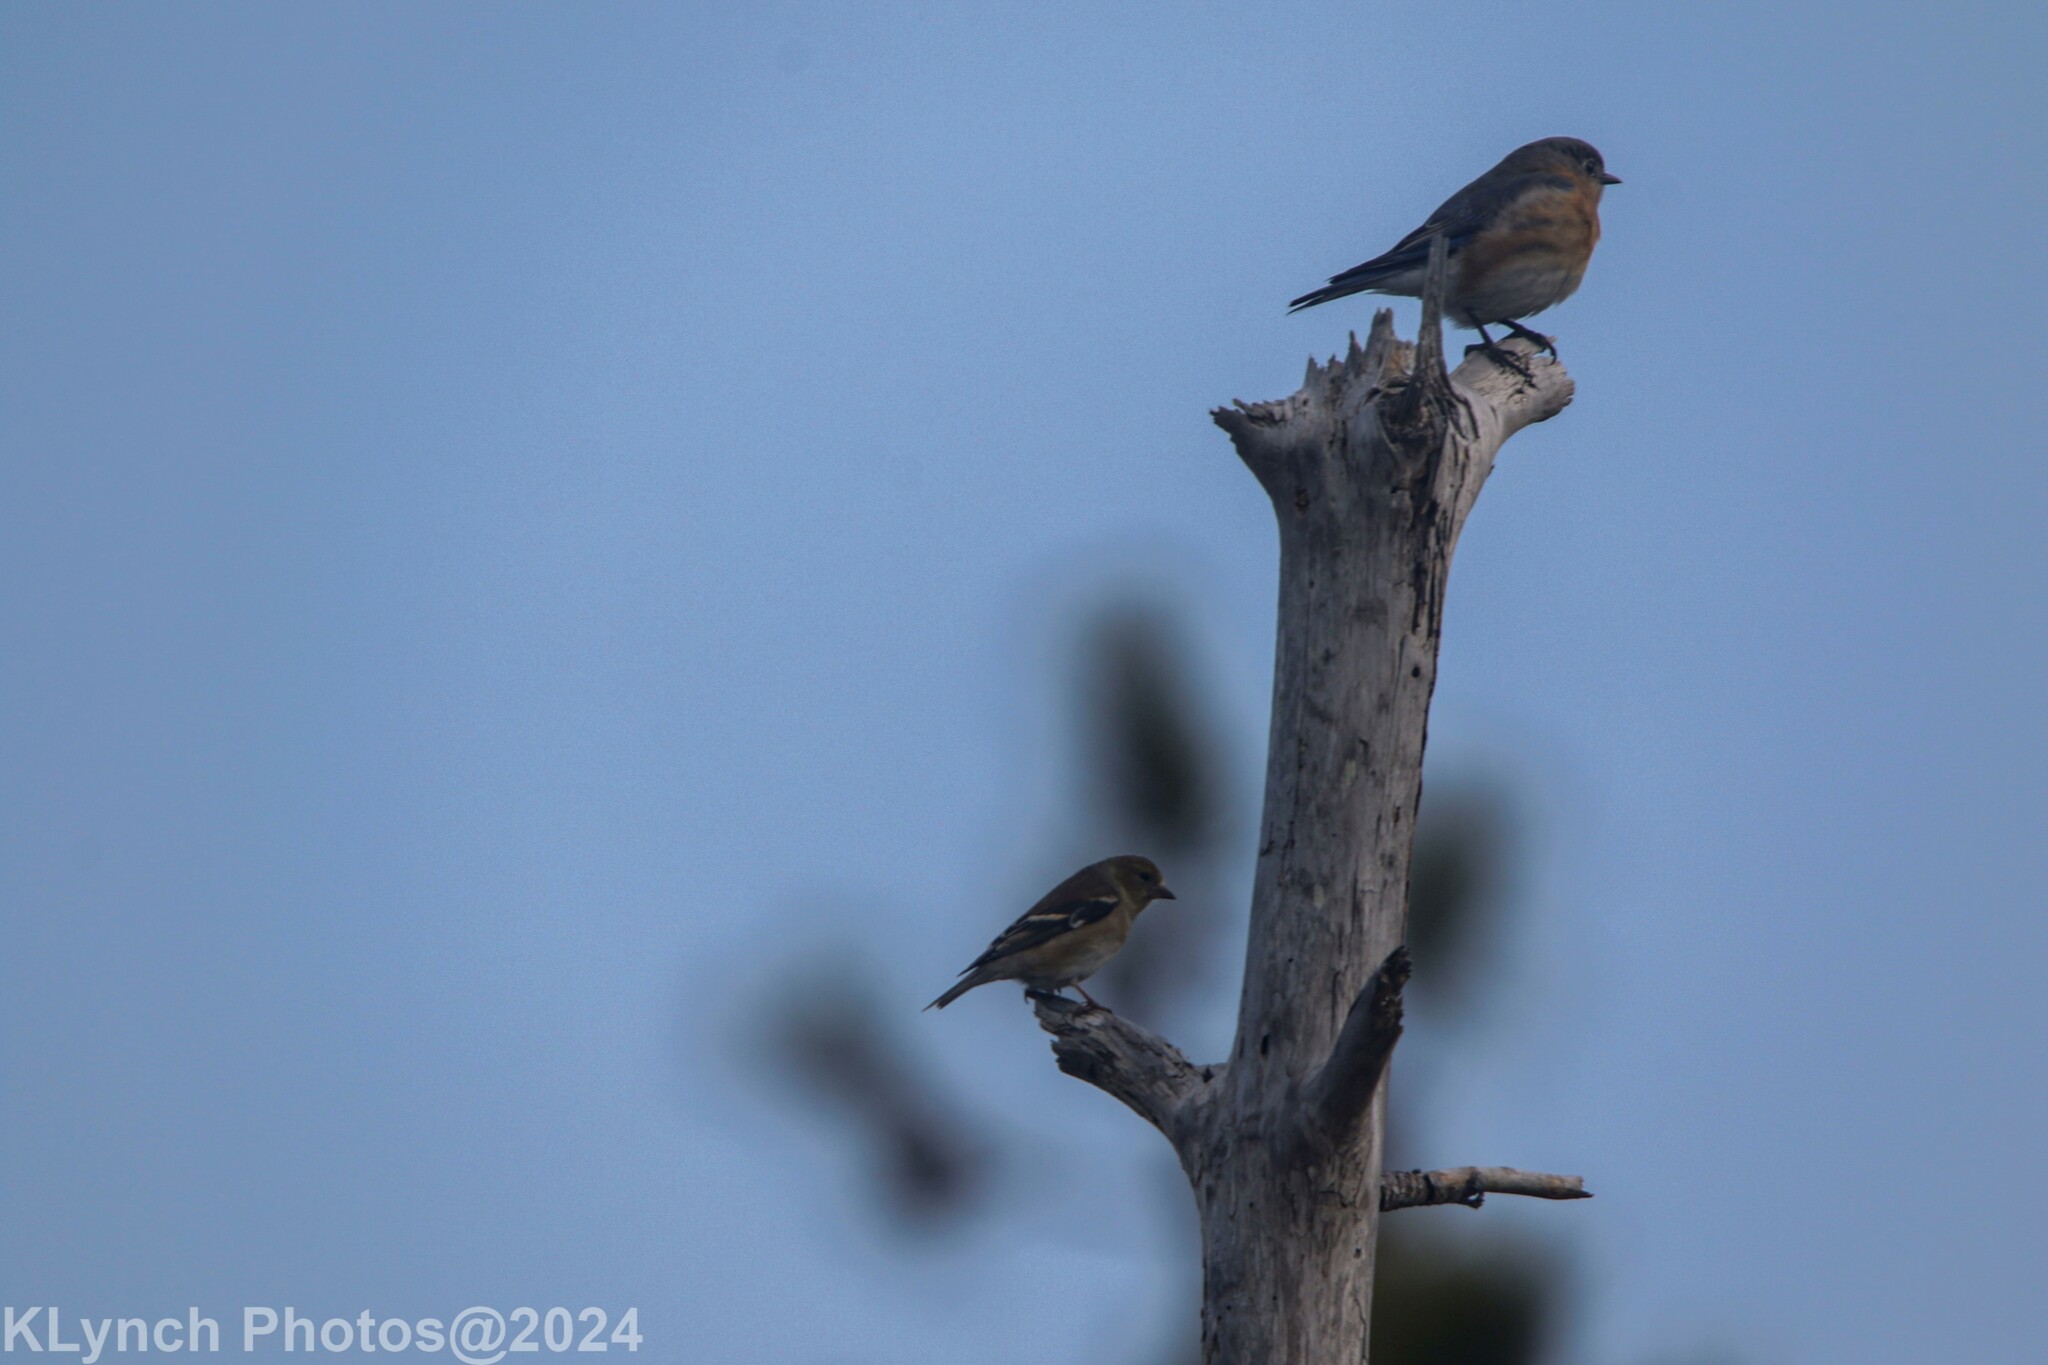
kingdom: Animalia
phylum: Chordata
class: Aves
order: Passeriformes
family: Fringillidae
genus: Spinus
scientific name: Spinus tristis
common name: American goldfinch
